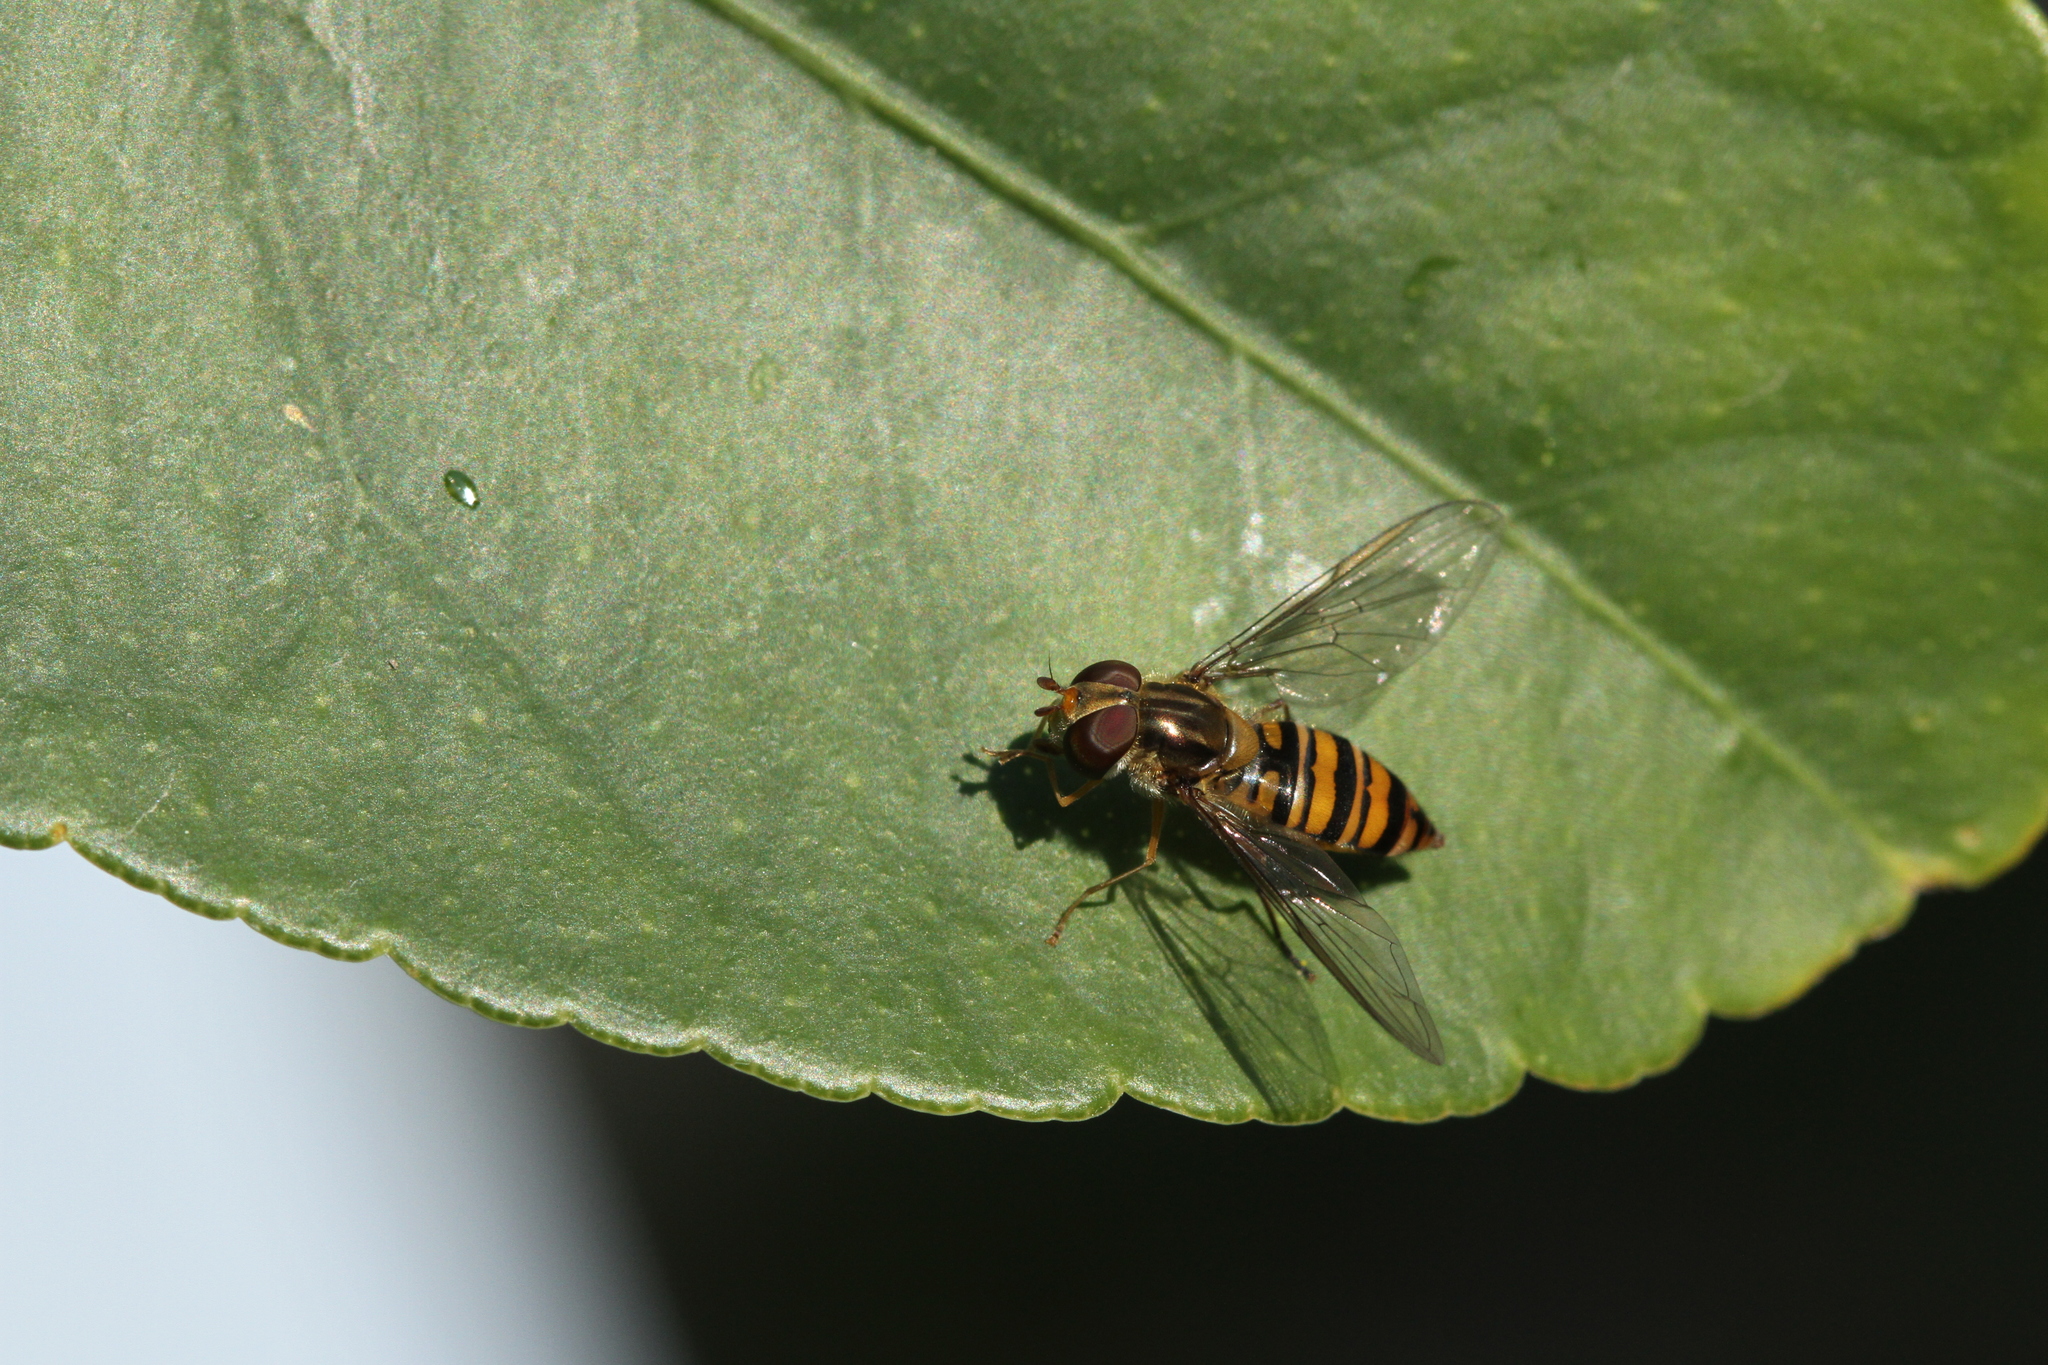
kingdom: Animalia
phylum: Arthropoda
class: Insecta
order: Diptera
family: Syrphidae
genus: Episyrphus
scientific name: Episyrphus balteatus
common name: Marmalade hoverfly
